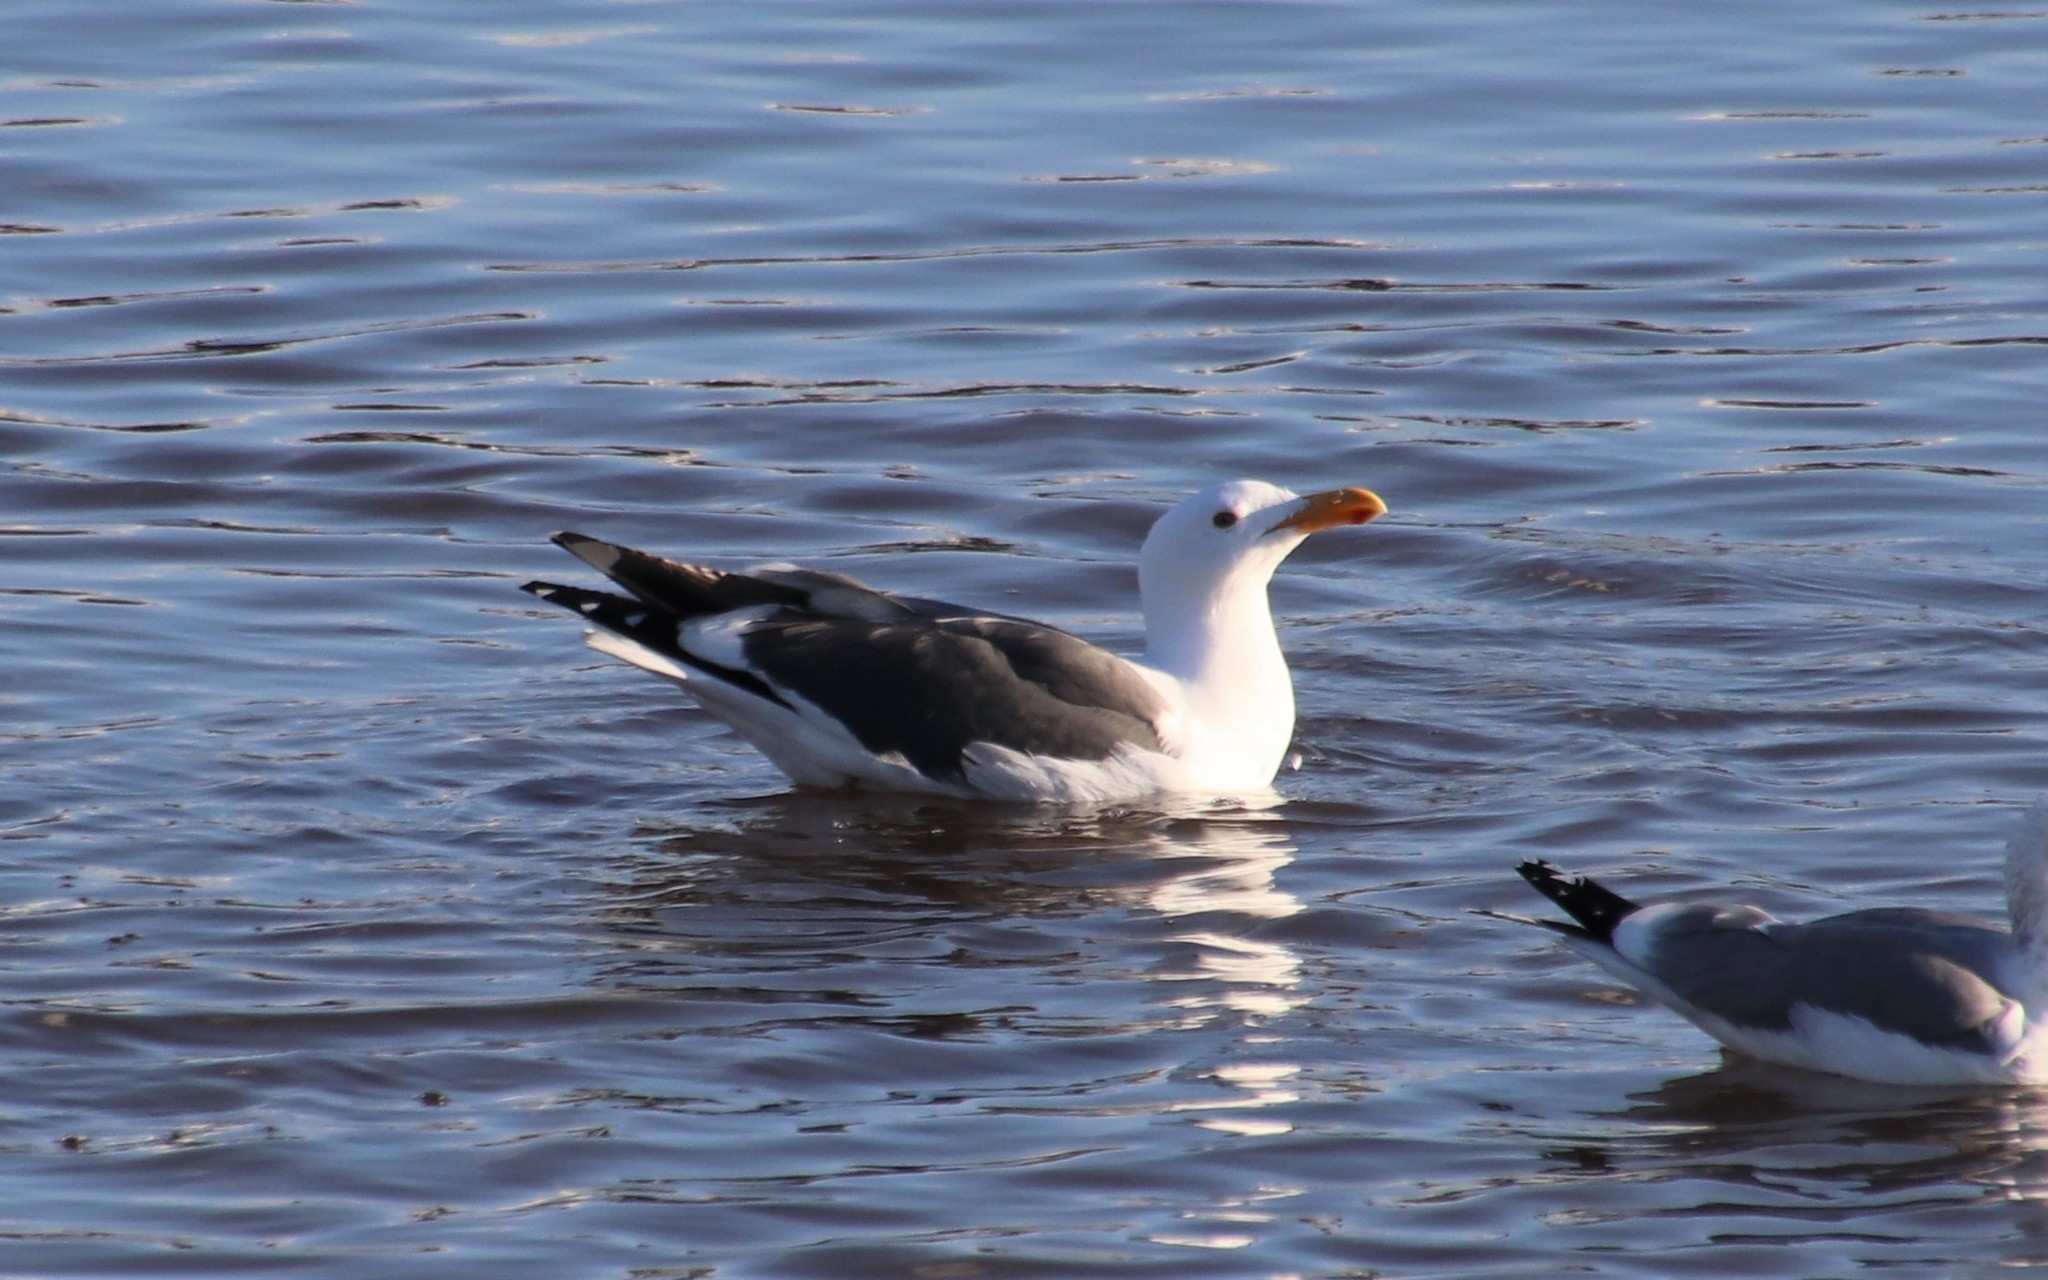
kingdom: Animalia
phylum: Chordata
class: Aves
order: Charadriiformes
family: Laridae
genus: Larus
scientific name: Larus occidentalis
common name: Western gull
